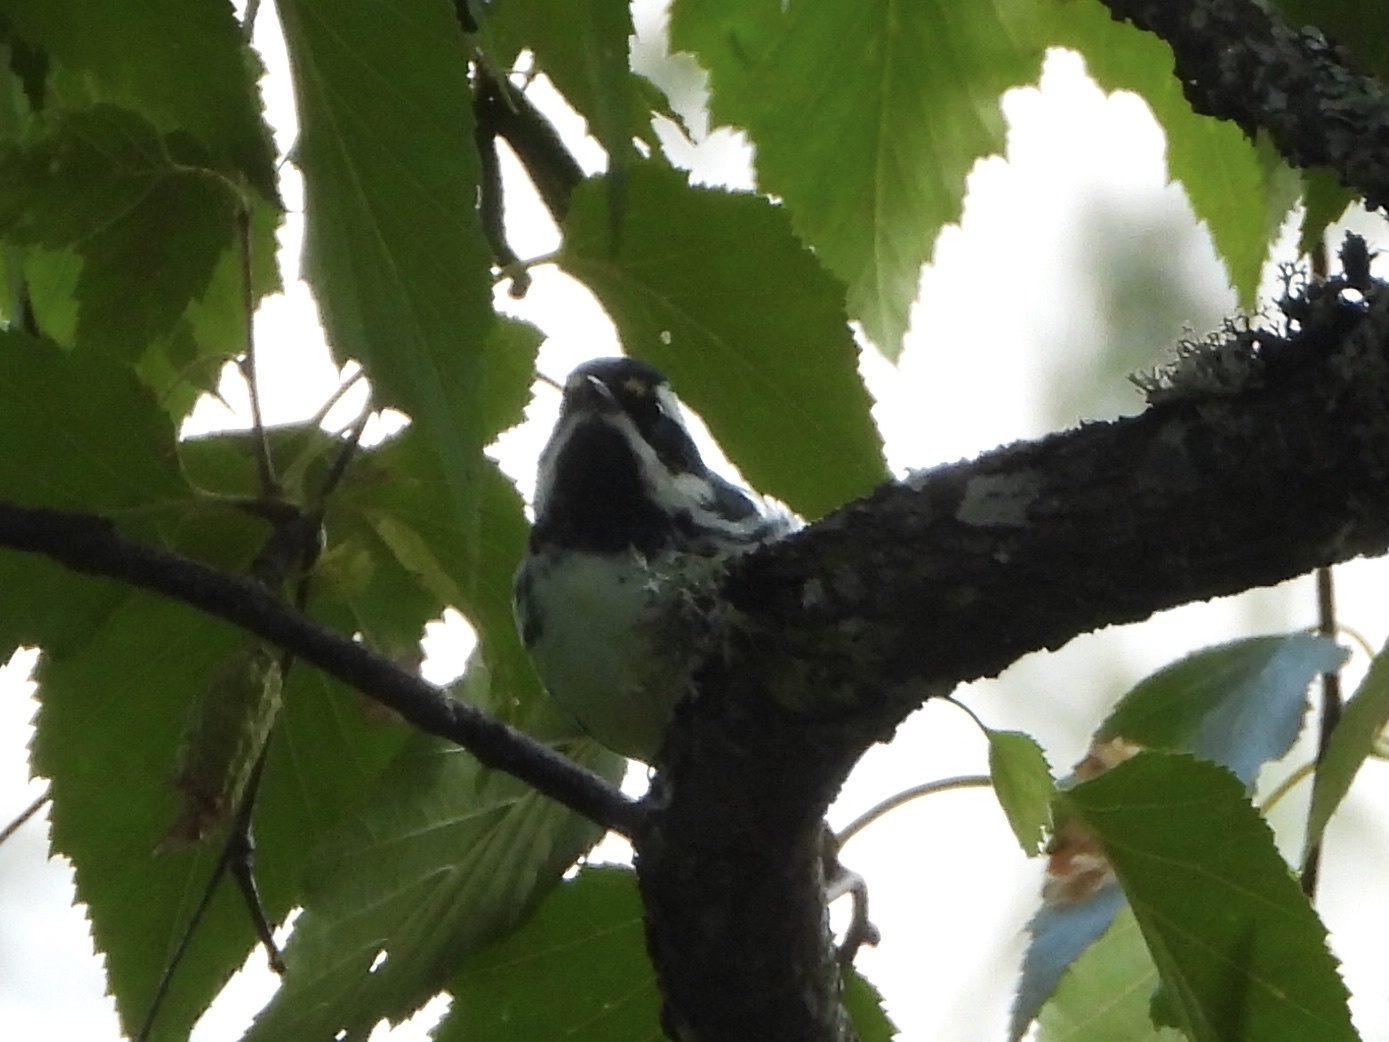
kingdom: Animalia
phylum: Chordata
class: Aves
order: Passeriformes
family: Parulidae
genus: Setophaga
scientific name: Setophaga nigrescens
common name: Black-throated gray warbler
